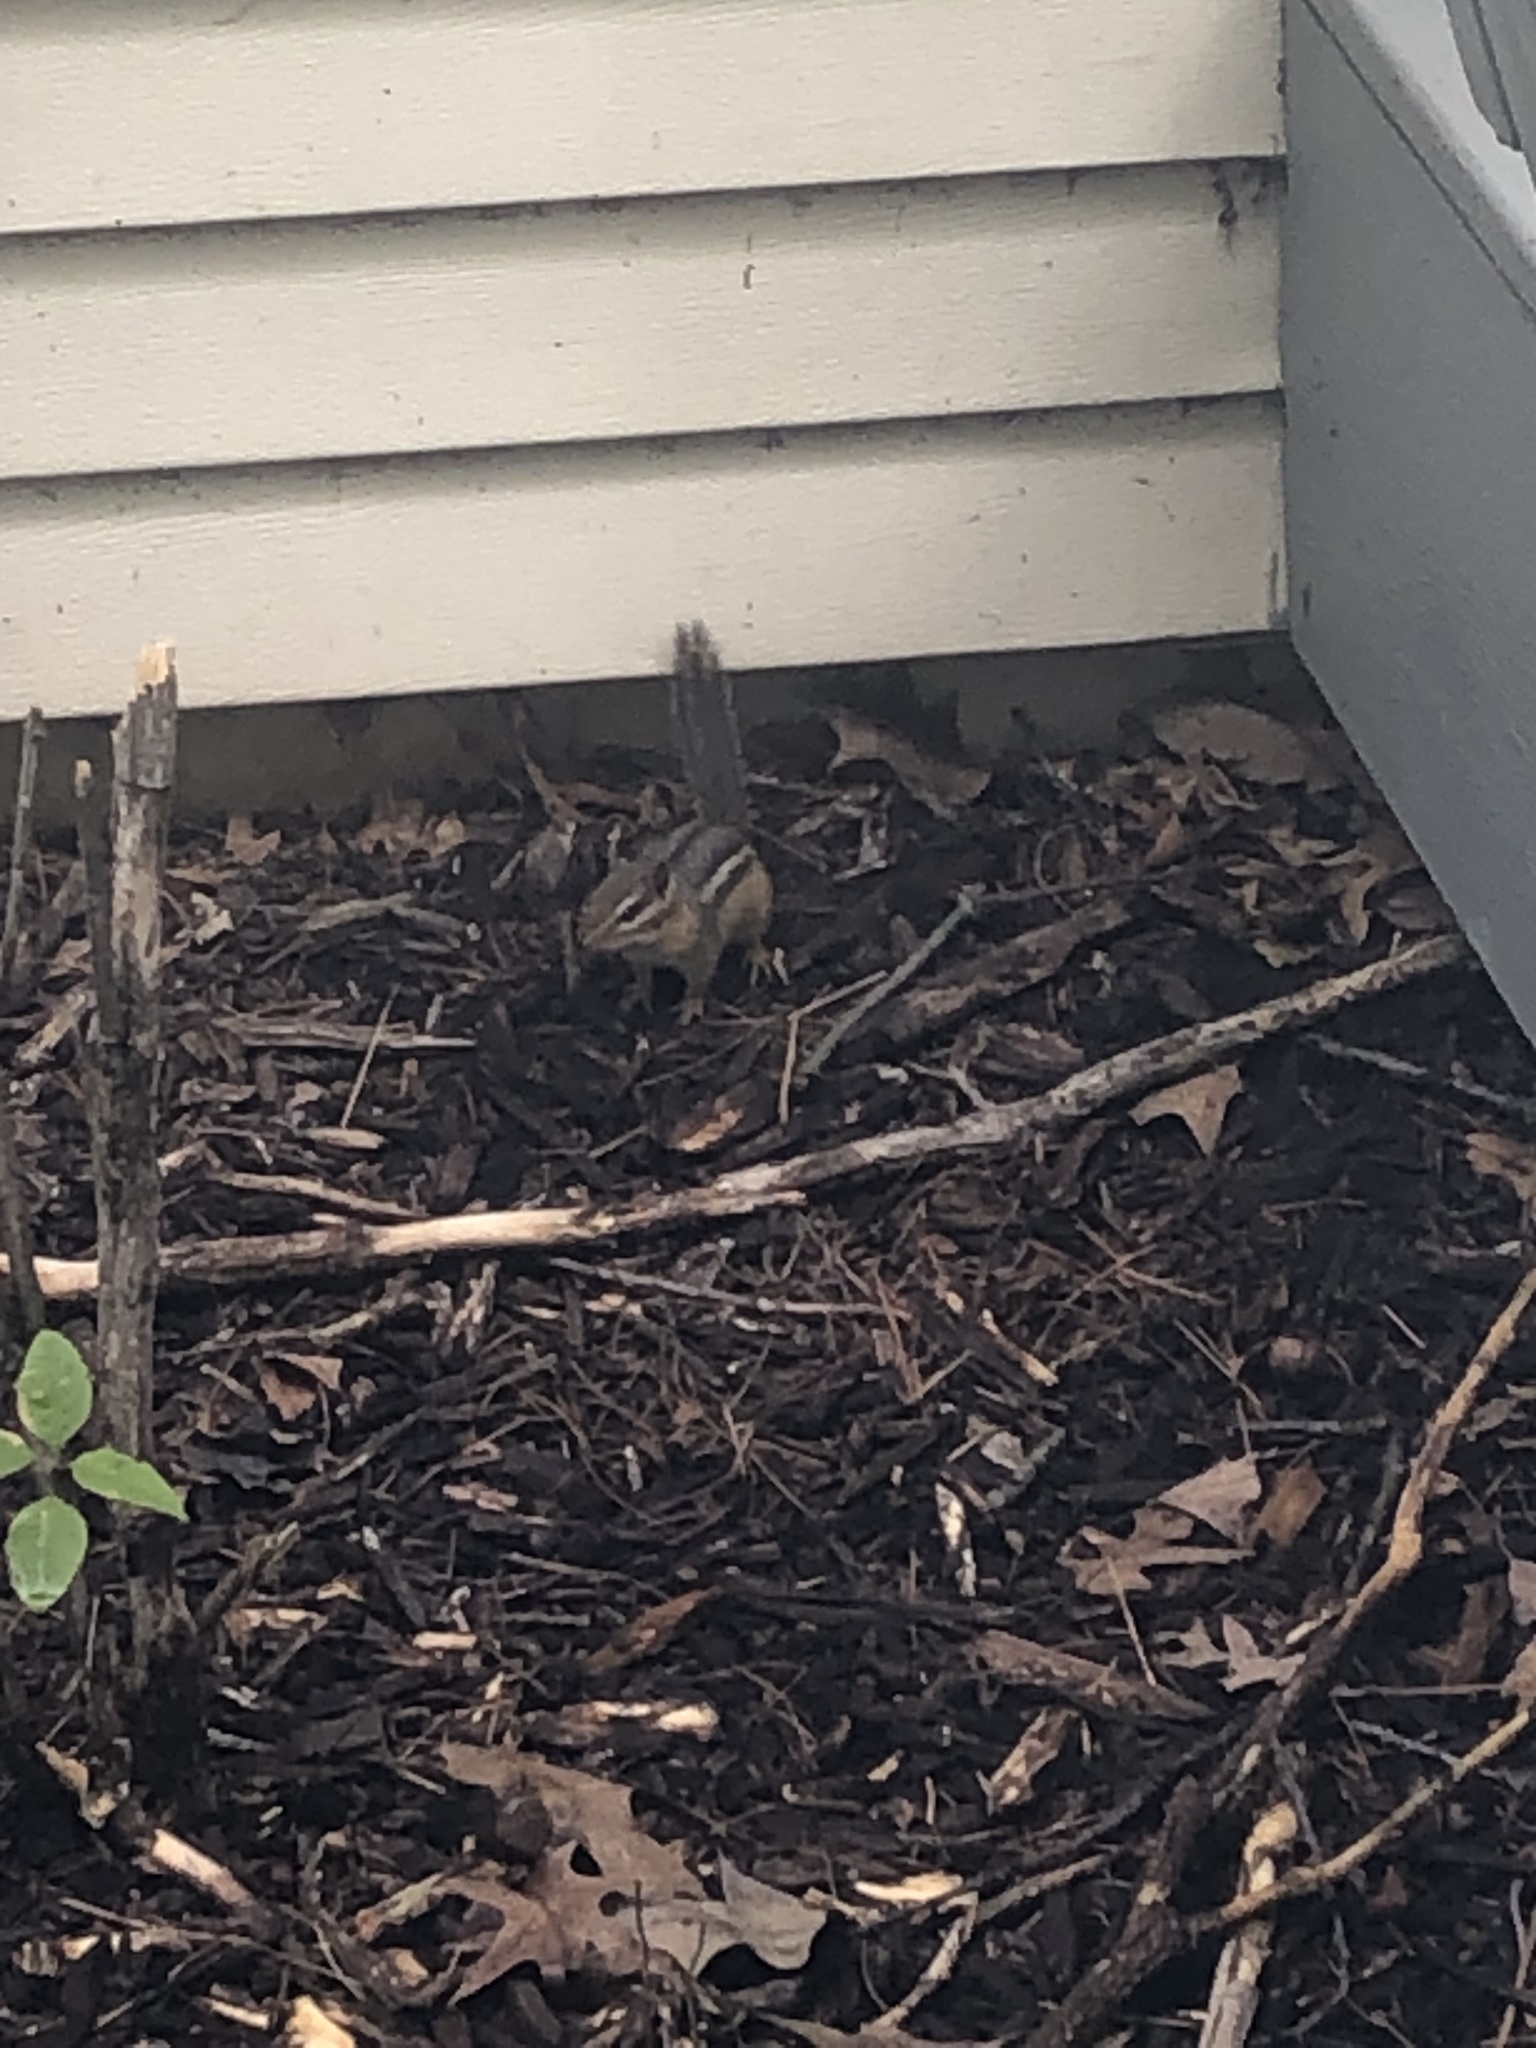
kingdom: Animalia
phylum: Chordata
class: Mammalia
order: Rodentia
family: Sciuridae
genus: Tamias
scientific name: Tamias striatus
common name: Eastern chipmunk
